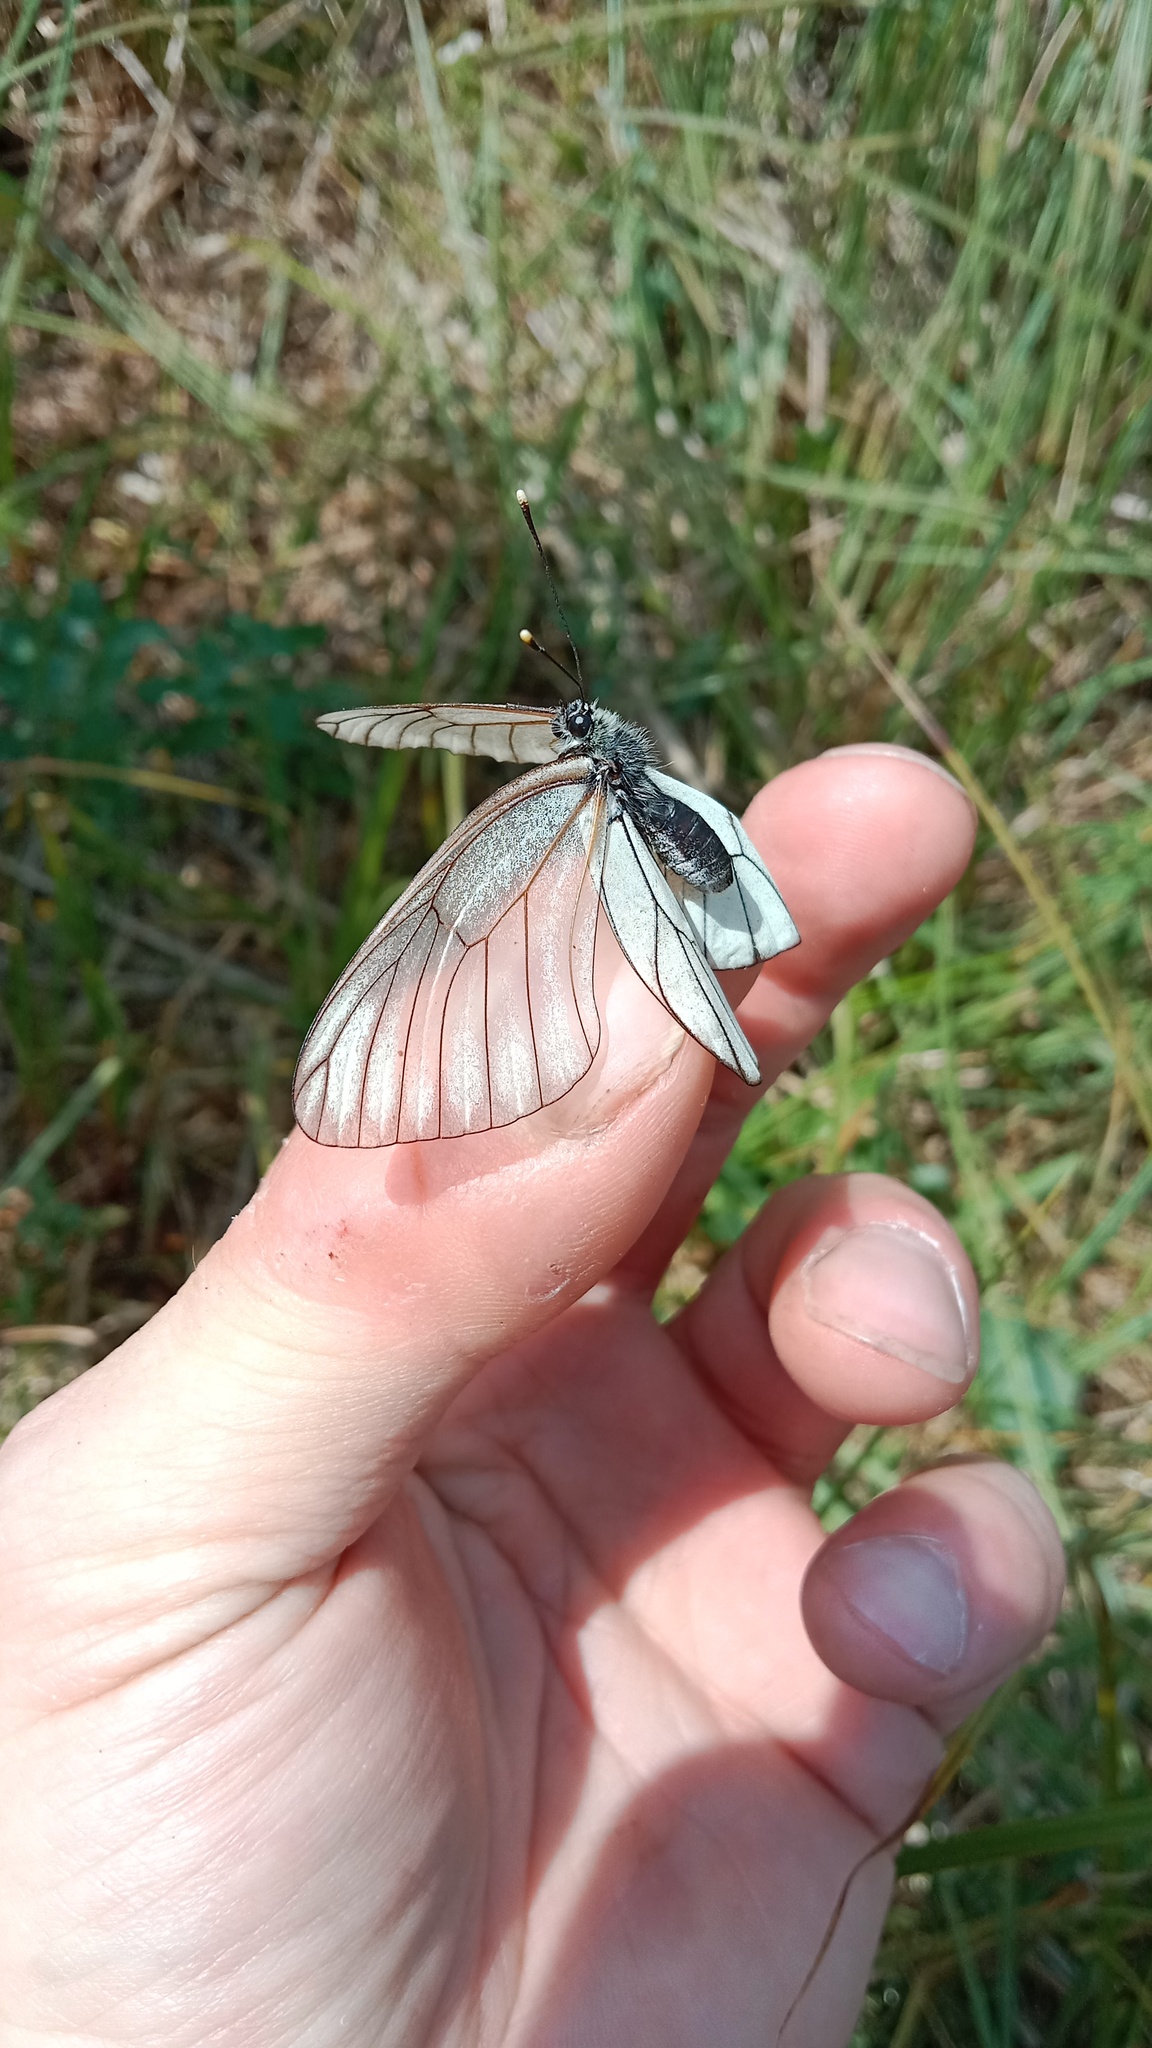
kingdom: Animalia
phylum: Arthropoda
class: Insecta
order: Lepidoptera
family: Pieridae
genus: Aporia
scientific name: Aporia crataegi
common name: Black-veined white
